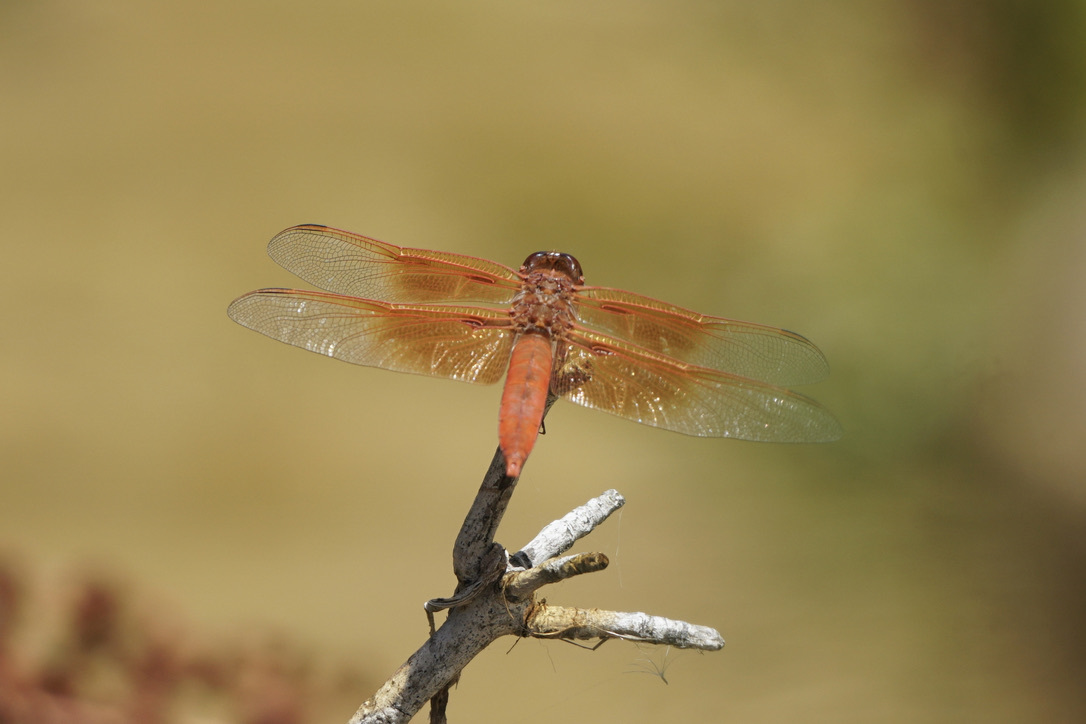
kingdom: Animalia
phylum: Arthropoda
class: Insecta
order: Odonata
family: Libellulidae
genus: Libellula
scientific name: Libellula saturata
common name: Flame skimmer
